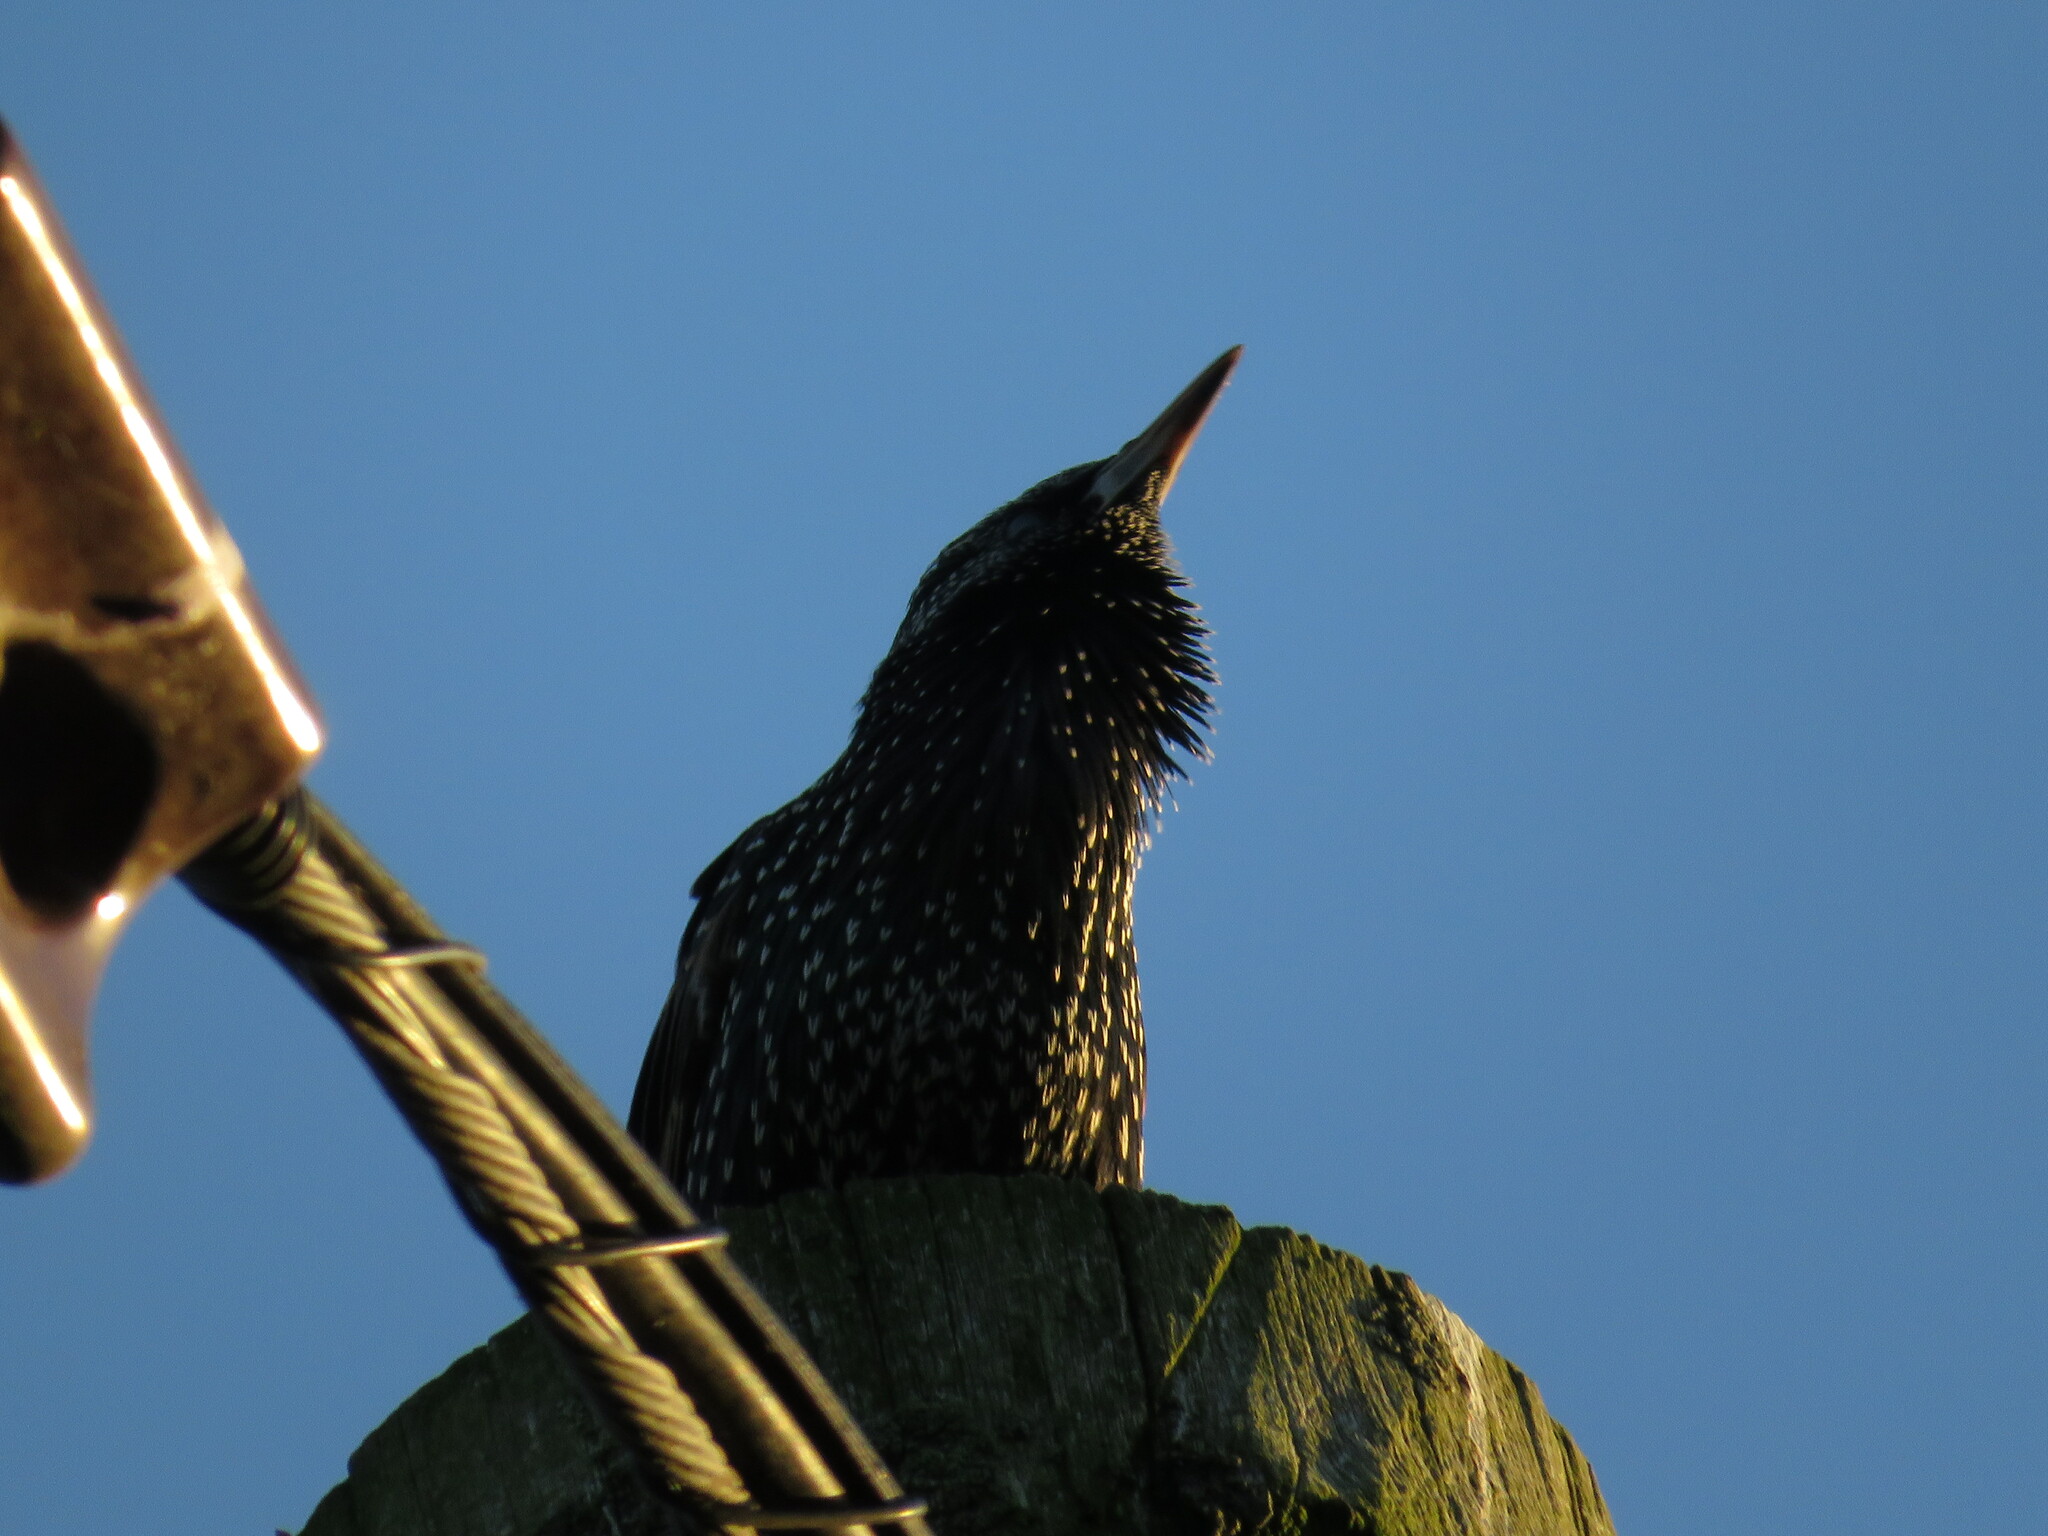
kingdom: Animalia
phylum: Chordata
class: Aves
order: Passeriformes
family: Sturnidae
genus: Sturnus
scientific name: Sturnus vulgaris
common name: Common starling
